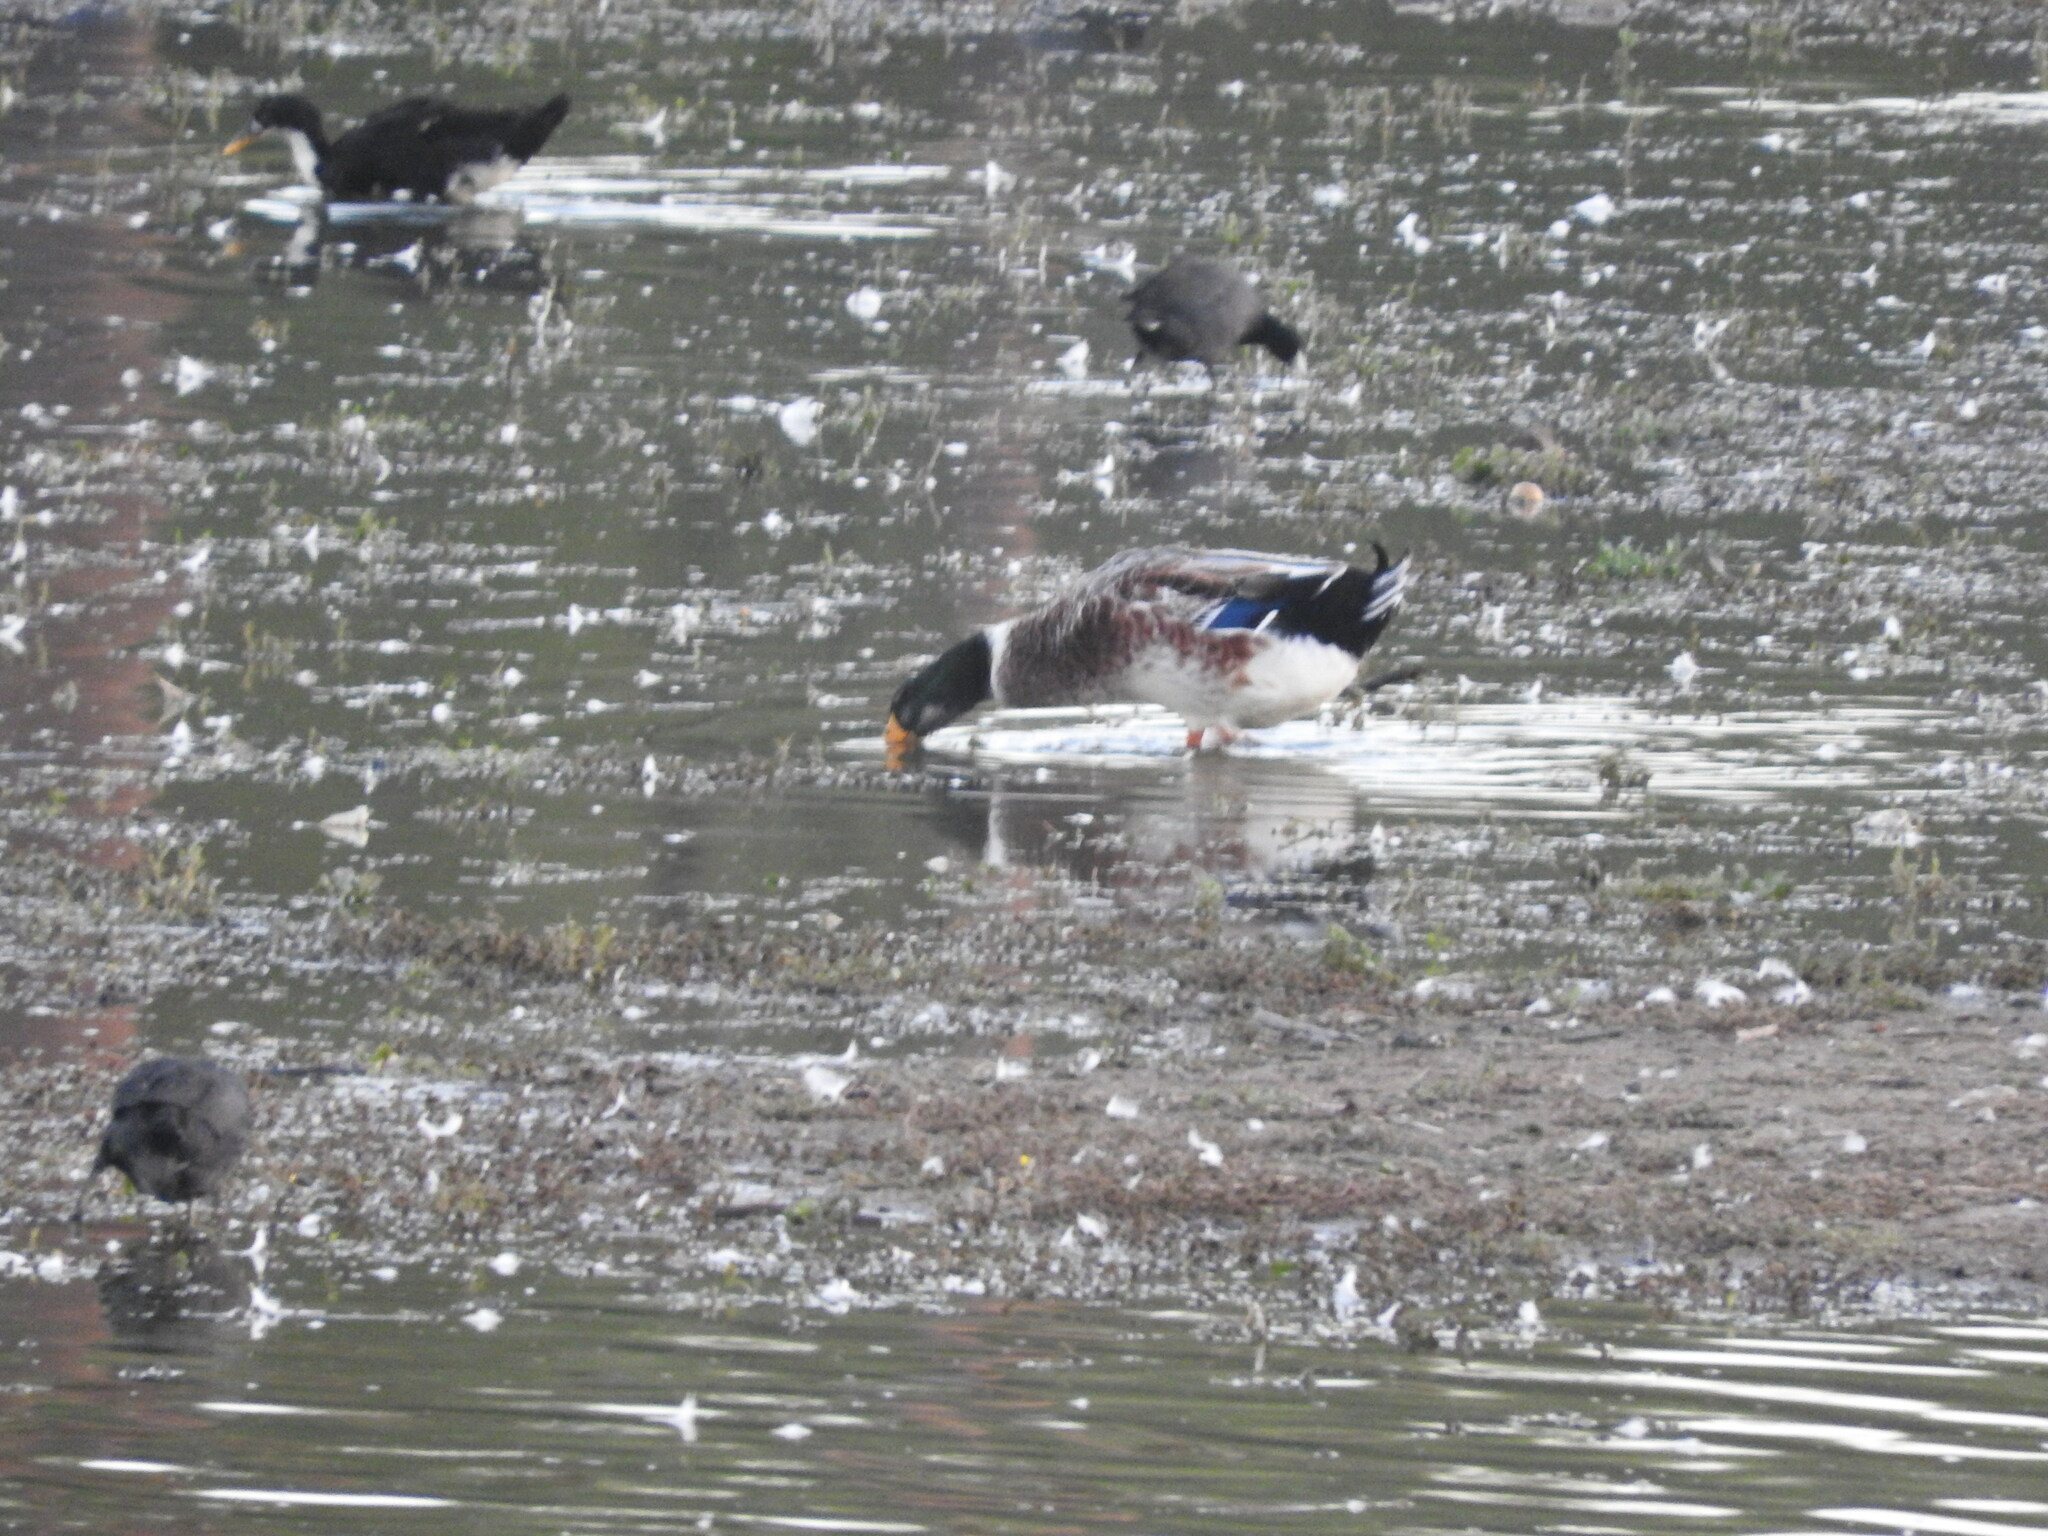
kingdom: Animalia
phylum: Chordata
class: Aves
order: Anseriformes
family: Anatidae
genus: Anas
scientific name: Anas platyrhynchos
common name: Mallard
